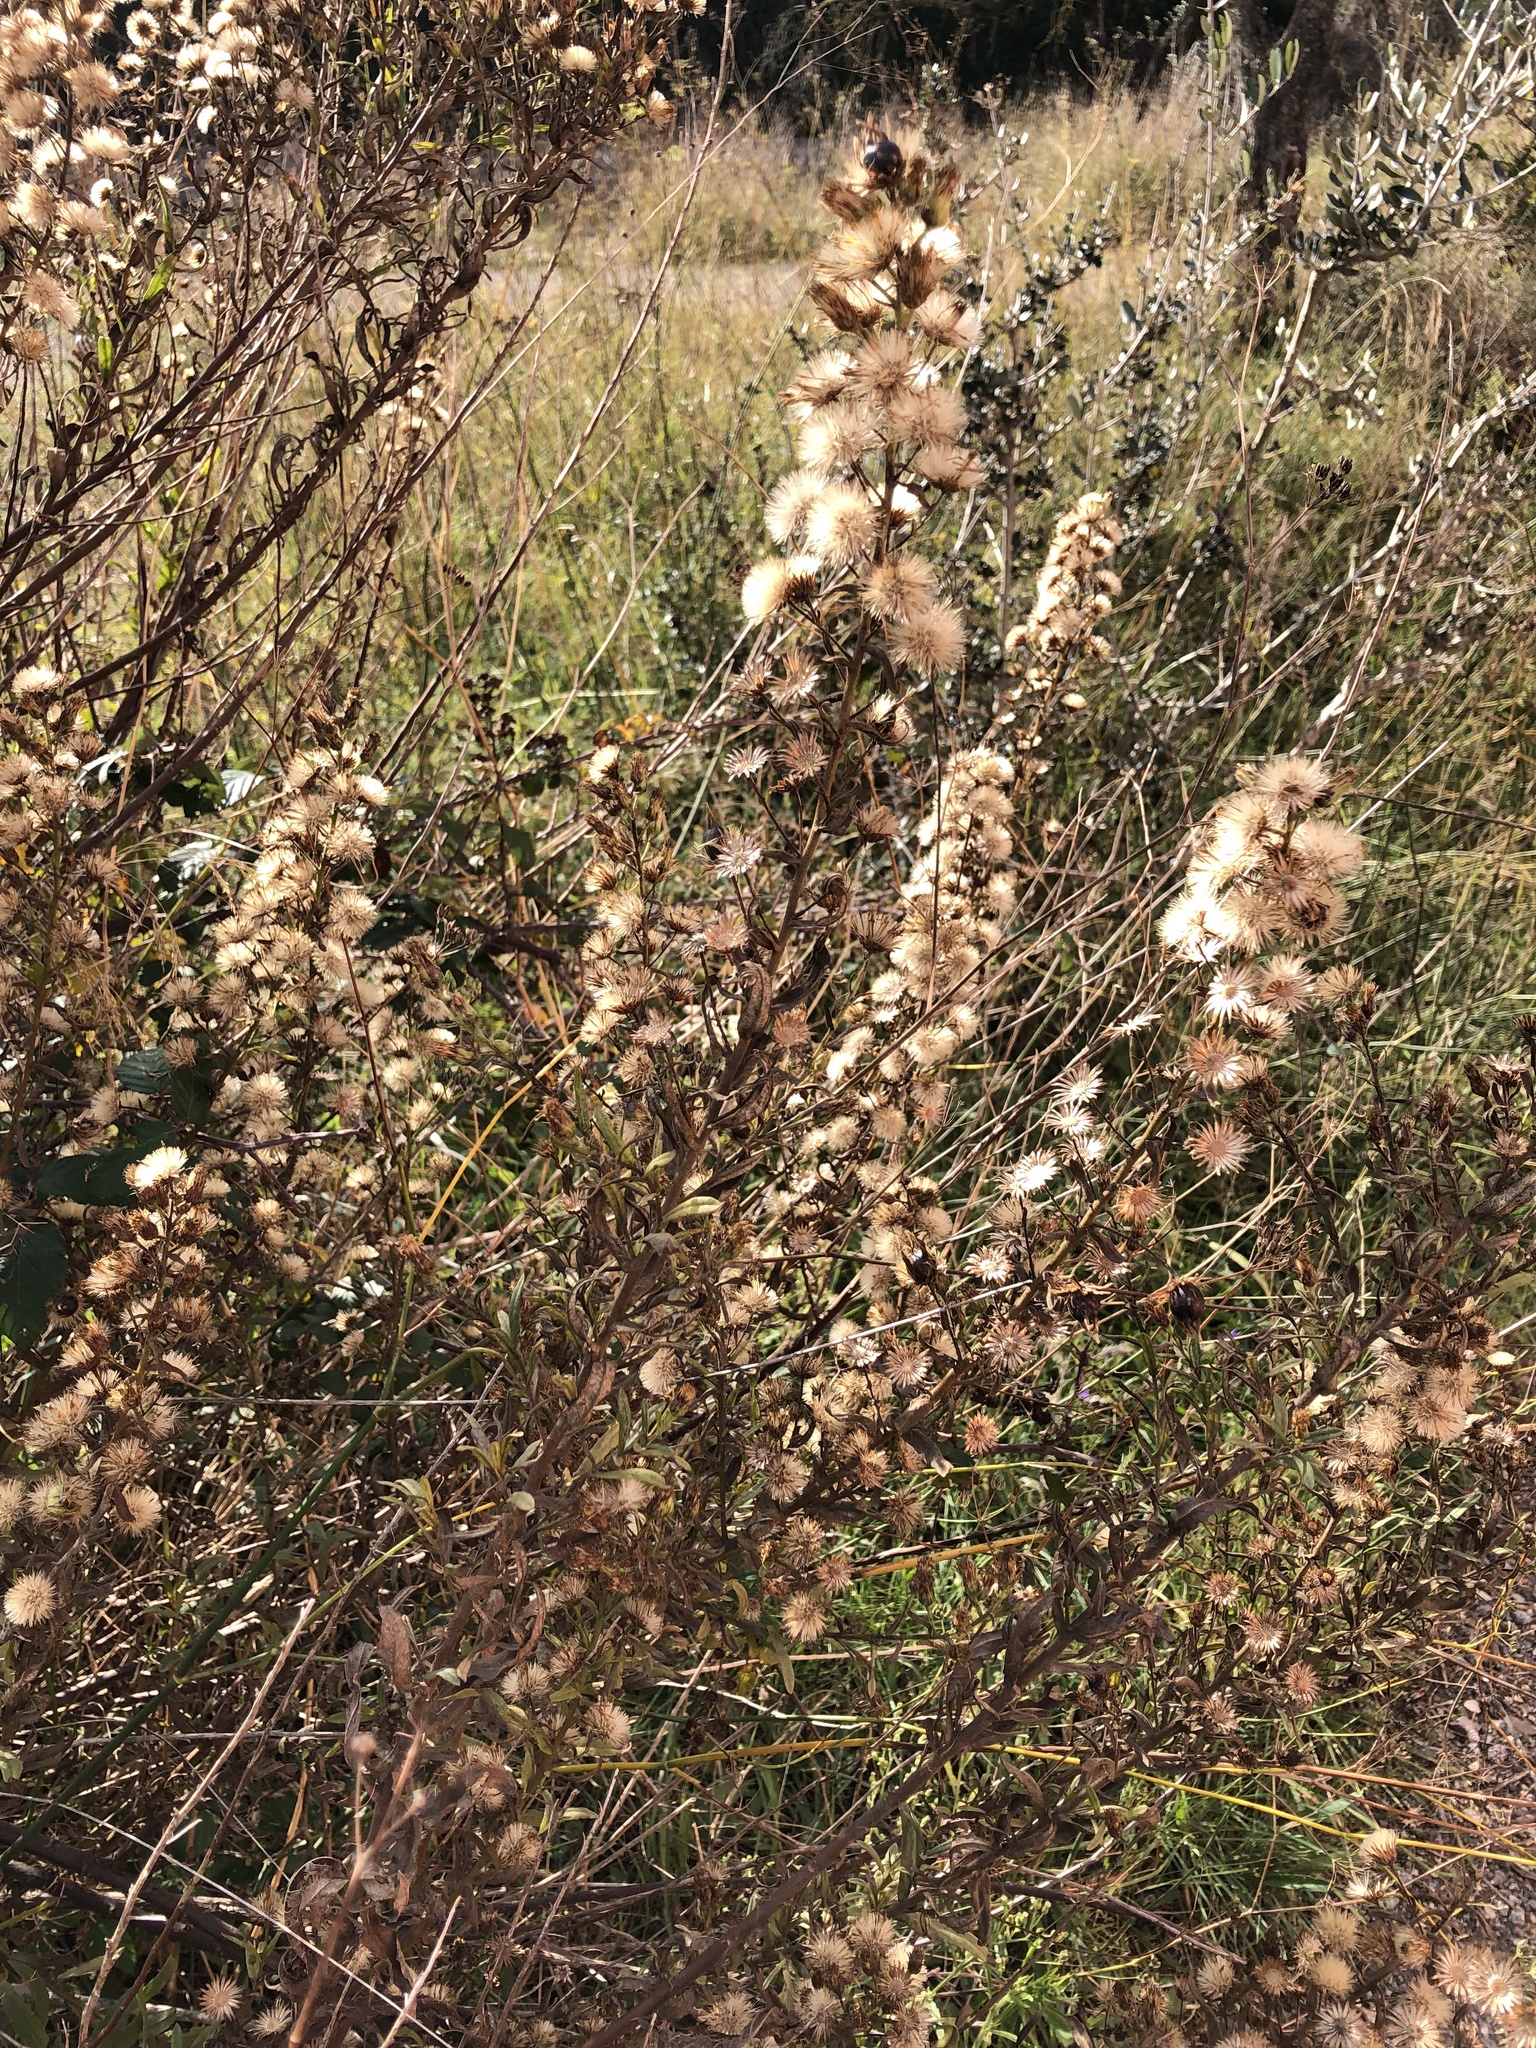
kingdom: Plantae
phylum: Tracheophyta
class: Magnoliopsida
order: Asterales
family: Asteraceae
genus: Dittrichia
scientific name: Dittrichia viscosa
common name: Woody fleabane
